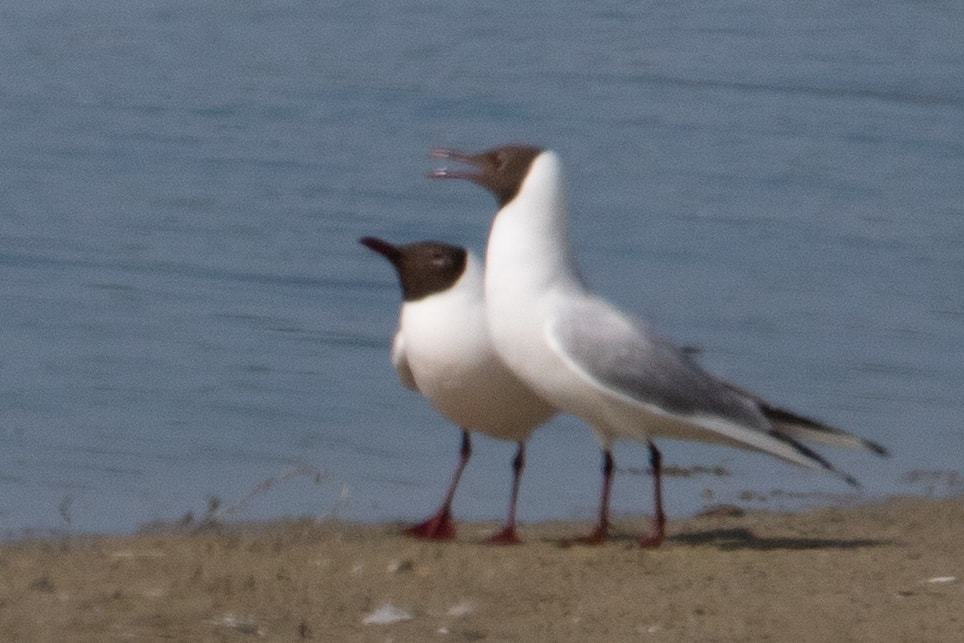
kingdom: Animalia
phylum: Chordata
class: Aves
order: Charadriiformes
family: Laridae
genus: Chroicocephalus
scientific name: Chroicocephalus ridibundus
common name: Black-headed gull
